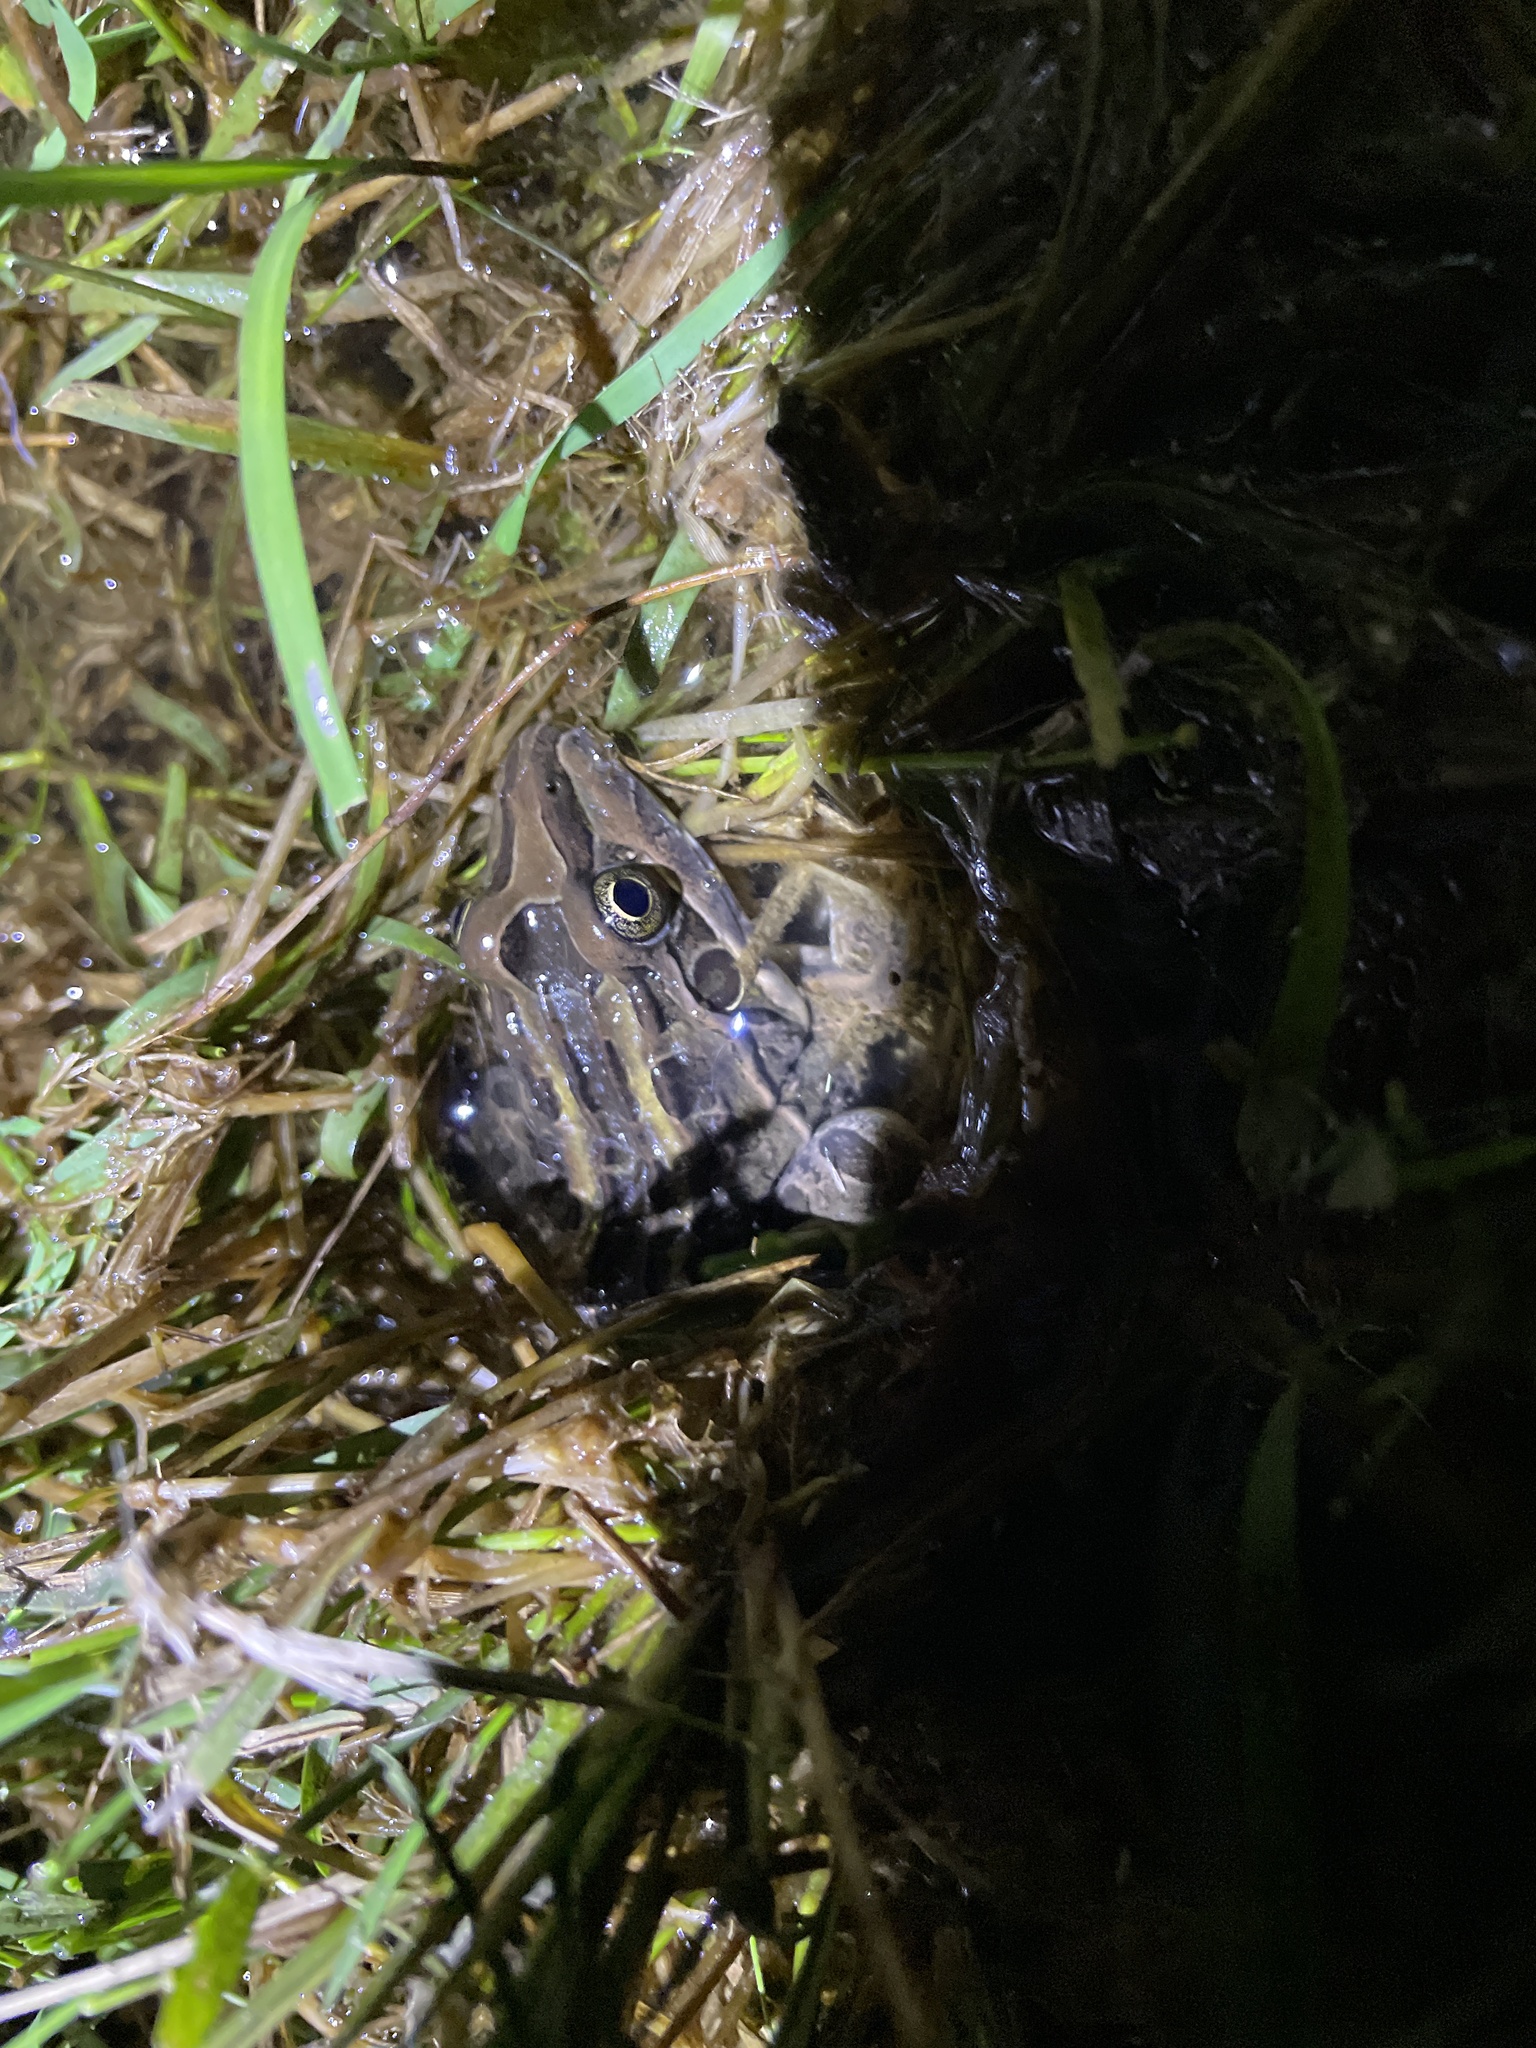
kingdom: Animalia
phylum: Chordata
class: Amphibia
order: Anura
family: Leptodactylidae
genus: Leptodactylus
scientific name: Leptodactylus luctator
